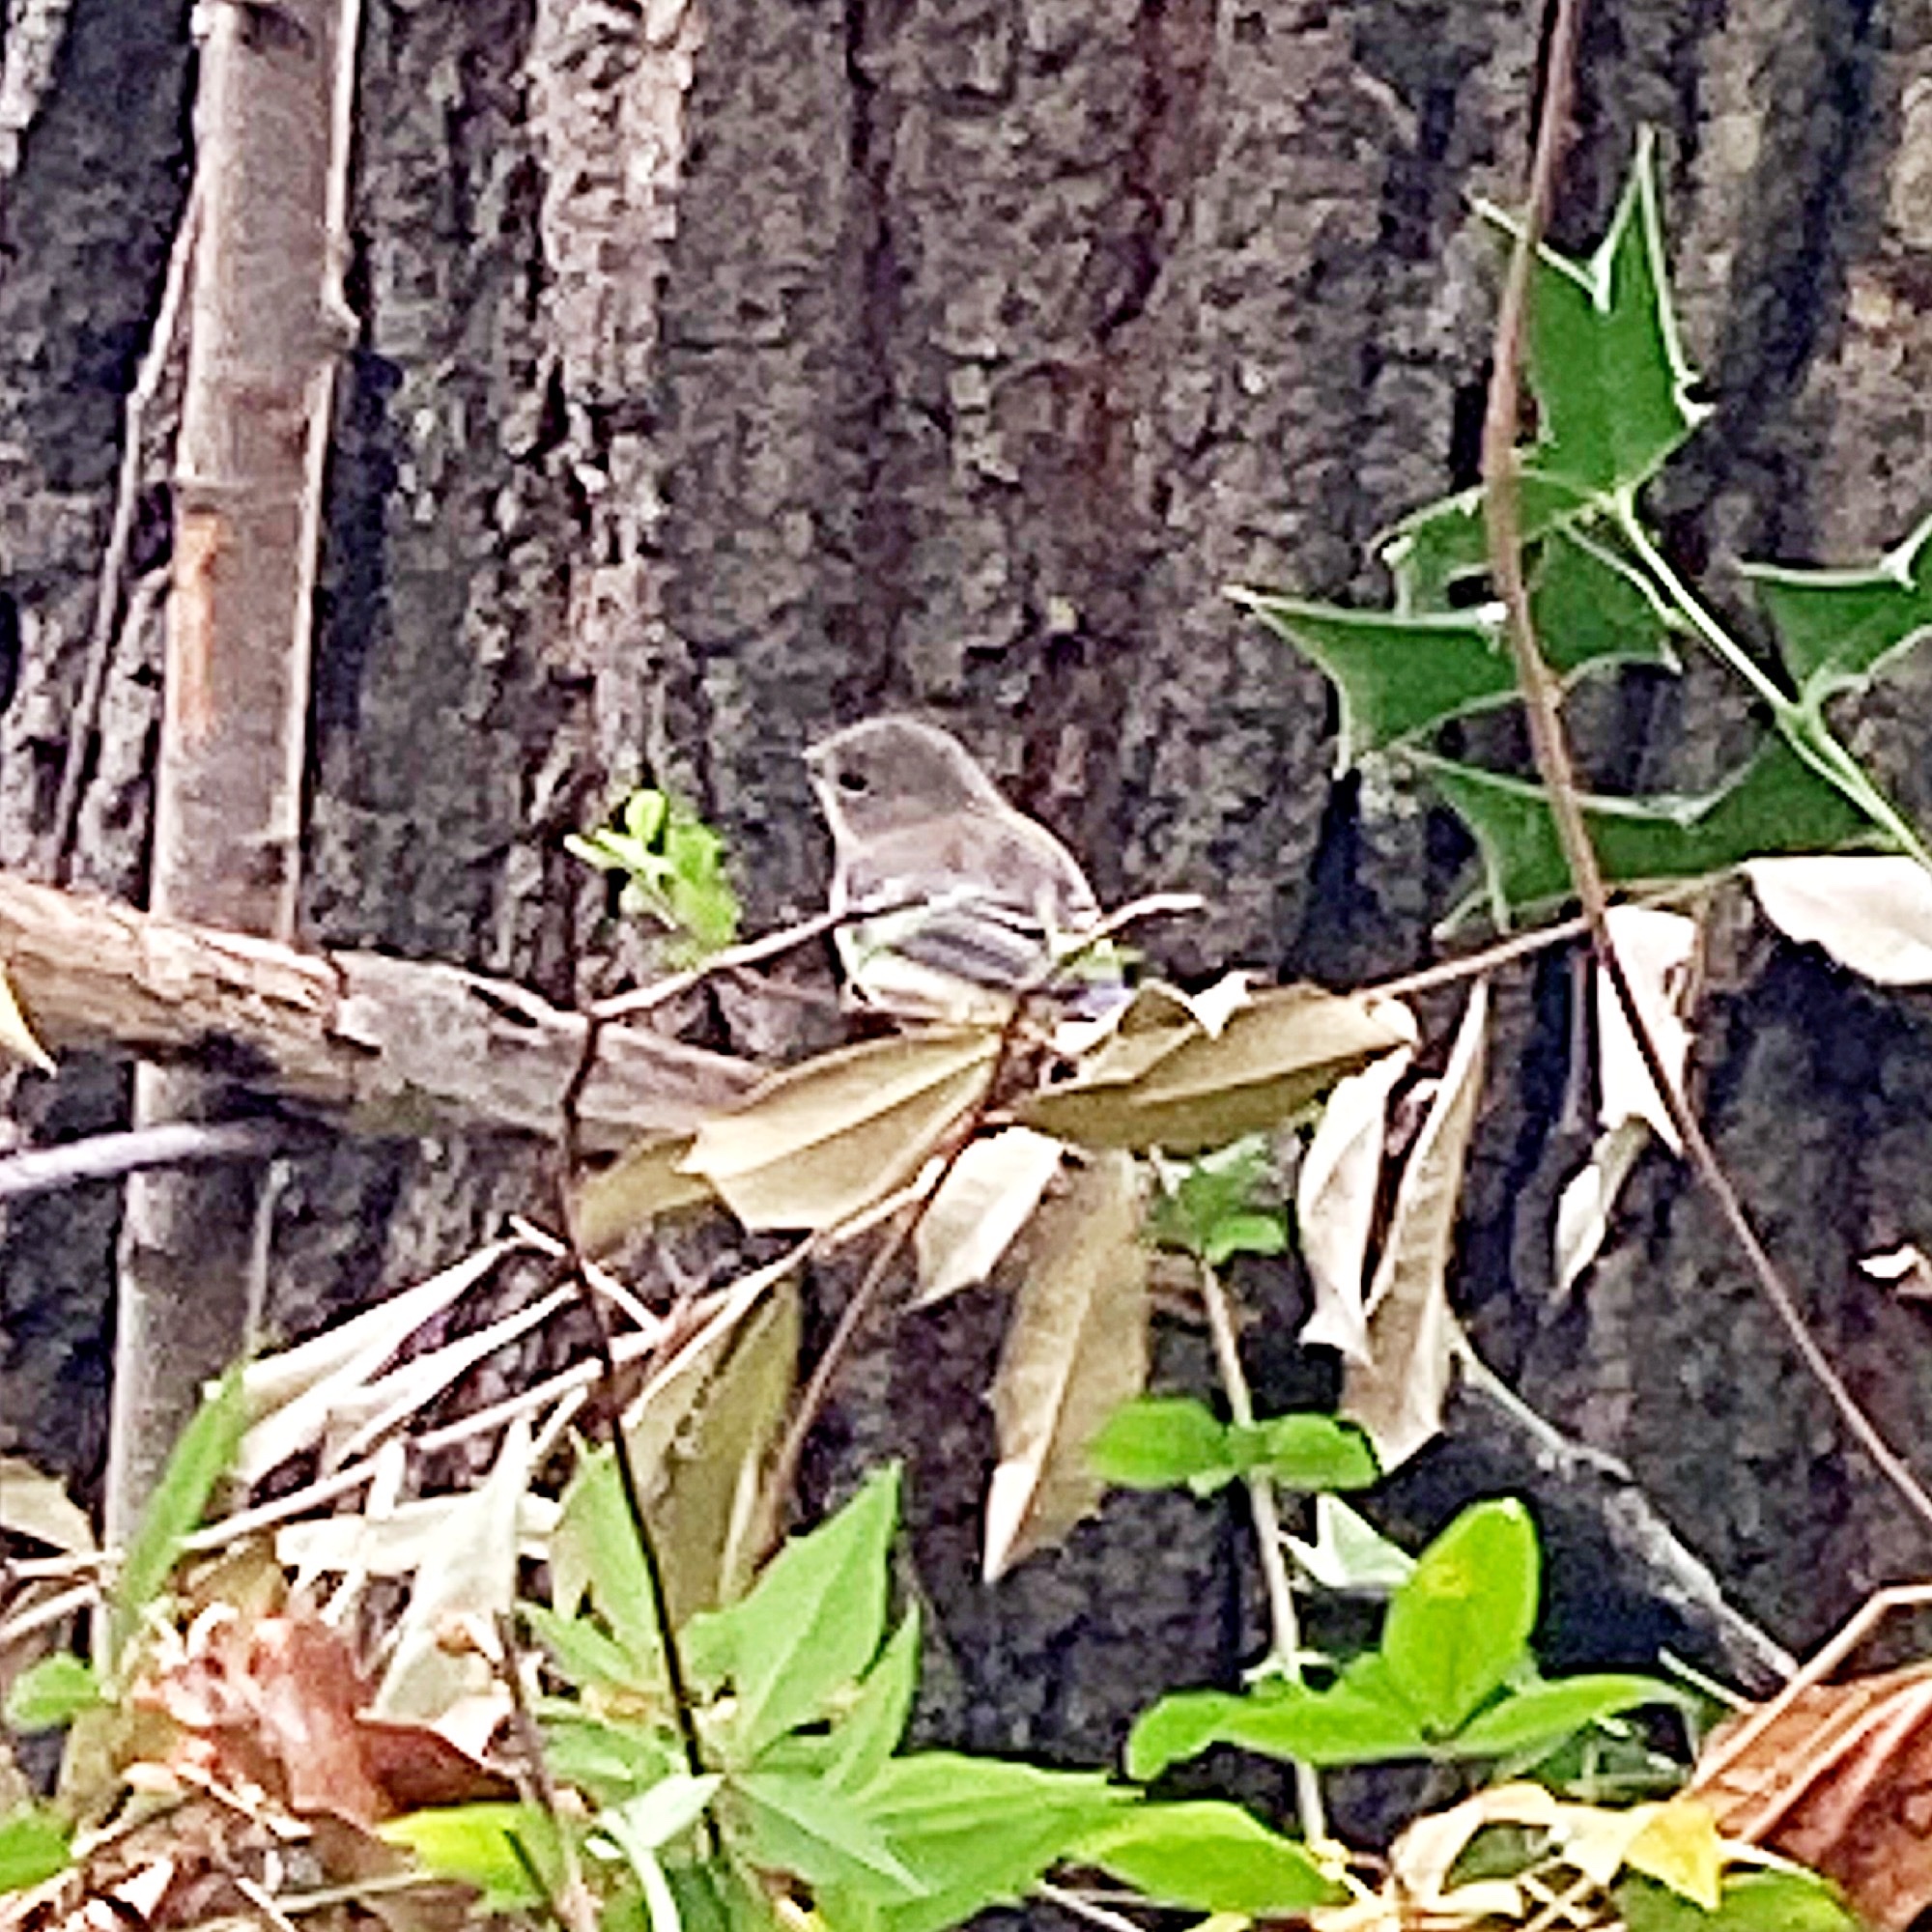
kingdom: Animalia
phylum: Chordata
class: Aves
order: Passeriformes
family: Parulidae
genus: Setophaga
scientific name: Setophaga coronata
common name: Myrtle warbler
